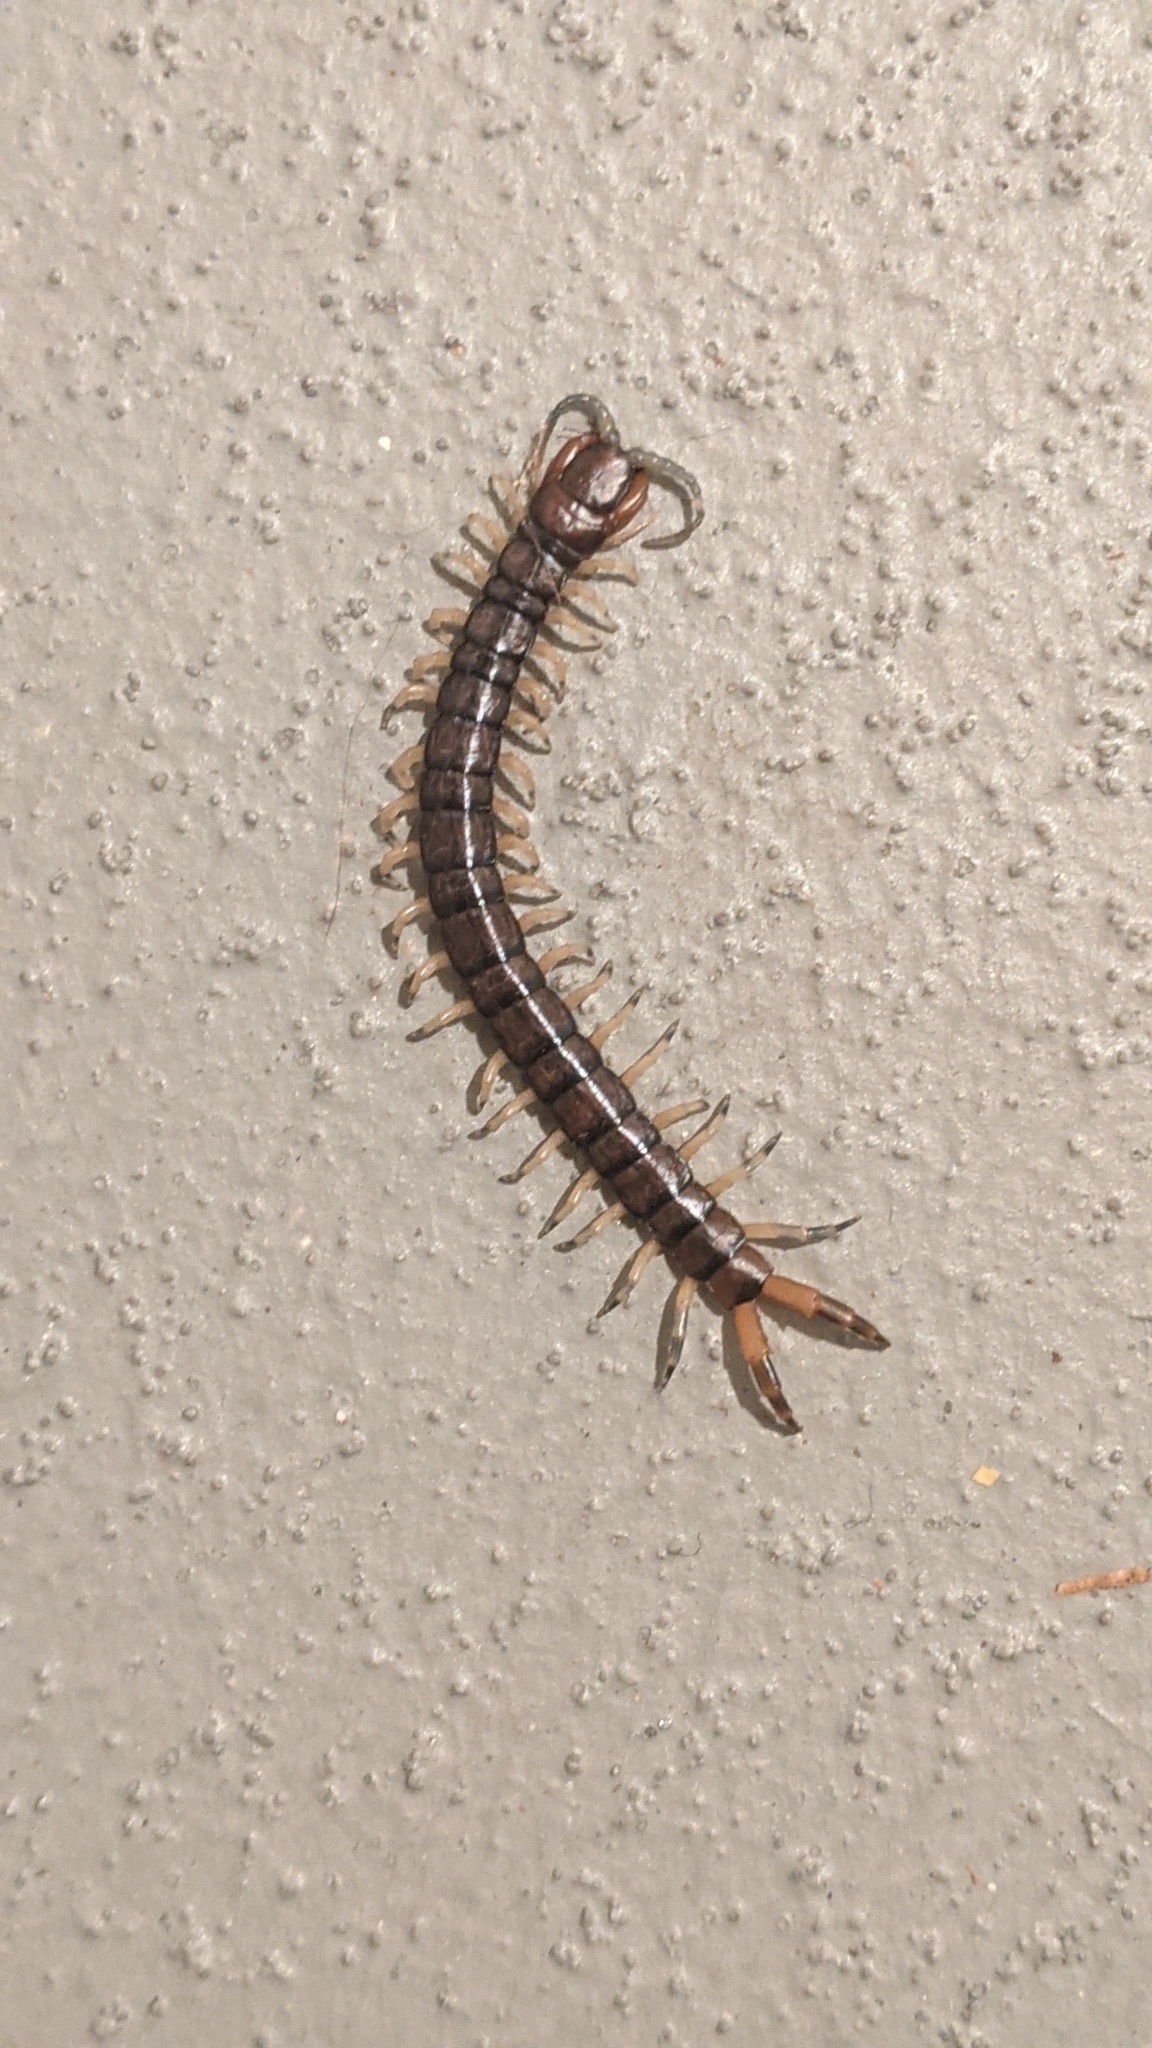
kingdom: Animalia
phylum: Arthropoda
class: Chilopoda
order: Scolopendromorpha
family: Scolopendridae
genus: Hemiscolopendra
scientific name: Hemiscolopendra marginata
